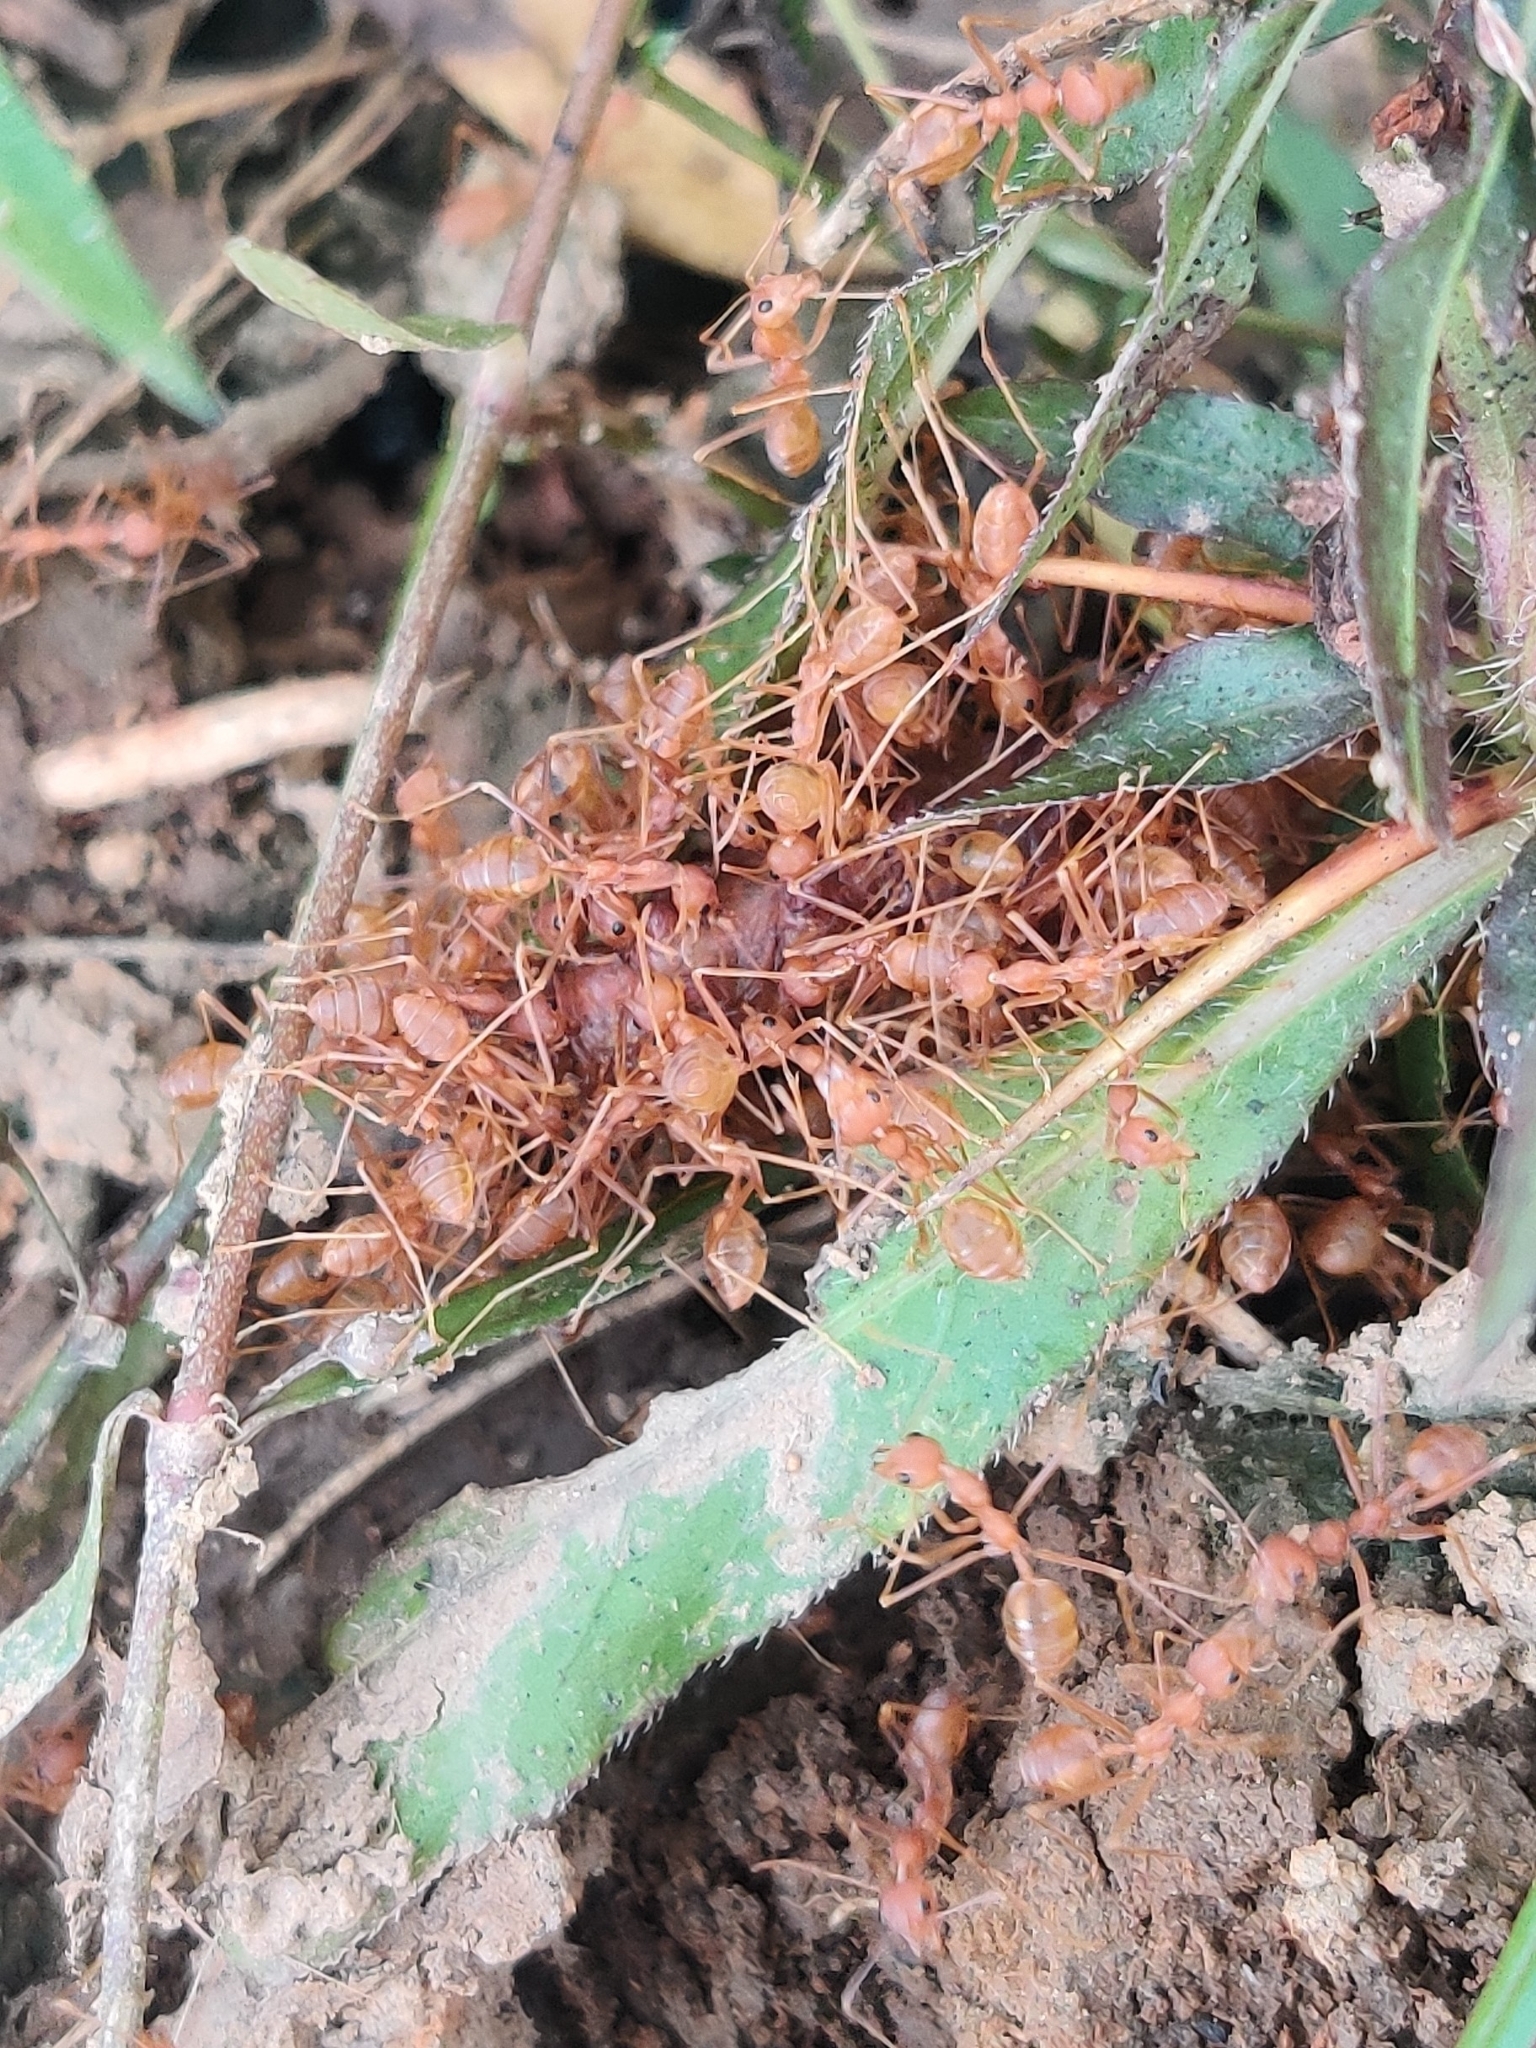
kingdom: Animalia
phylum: Arthropoda
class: Insecta
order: Hymenoptera
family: Formicidae
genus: Oecophylla
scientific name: Oecophylla smaragdina
